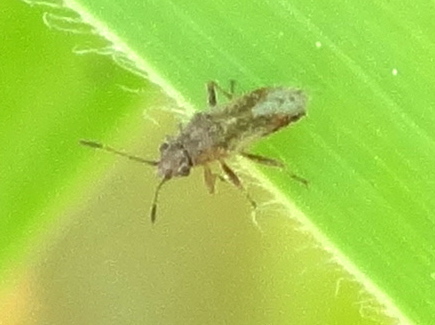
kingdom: Animalia
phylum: Arthropoda
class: Insecta
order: Hemiptera
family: Lygaeidae
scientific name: Lygaeidae
